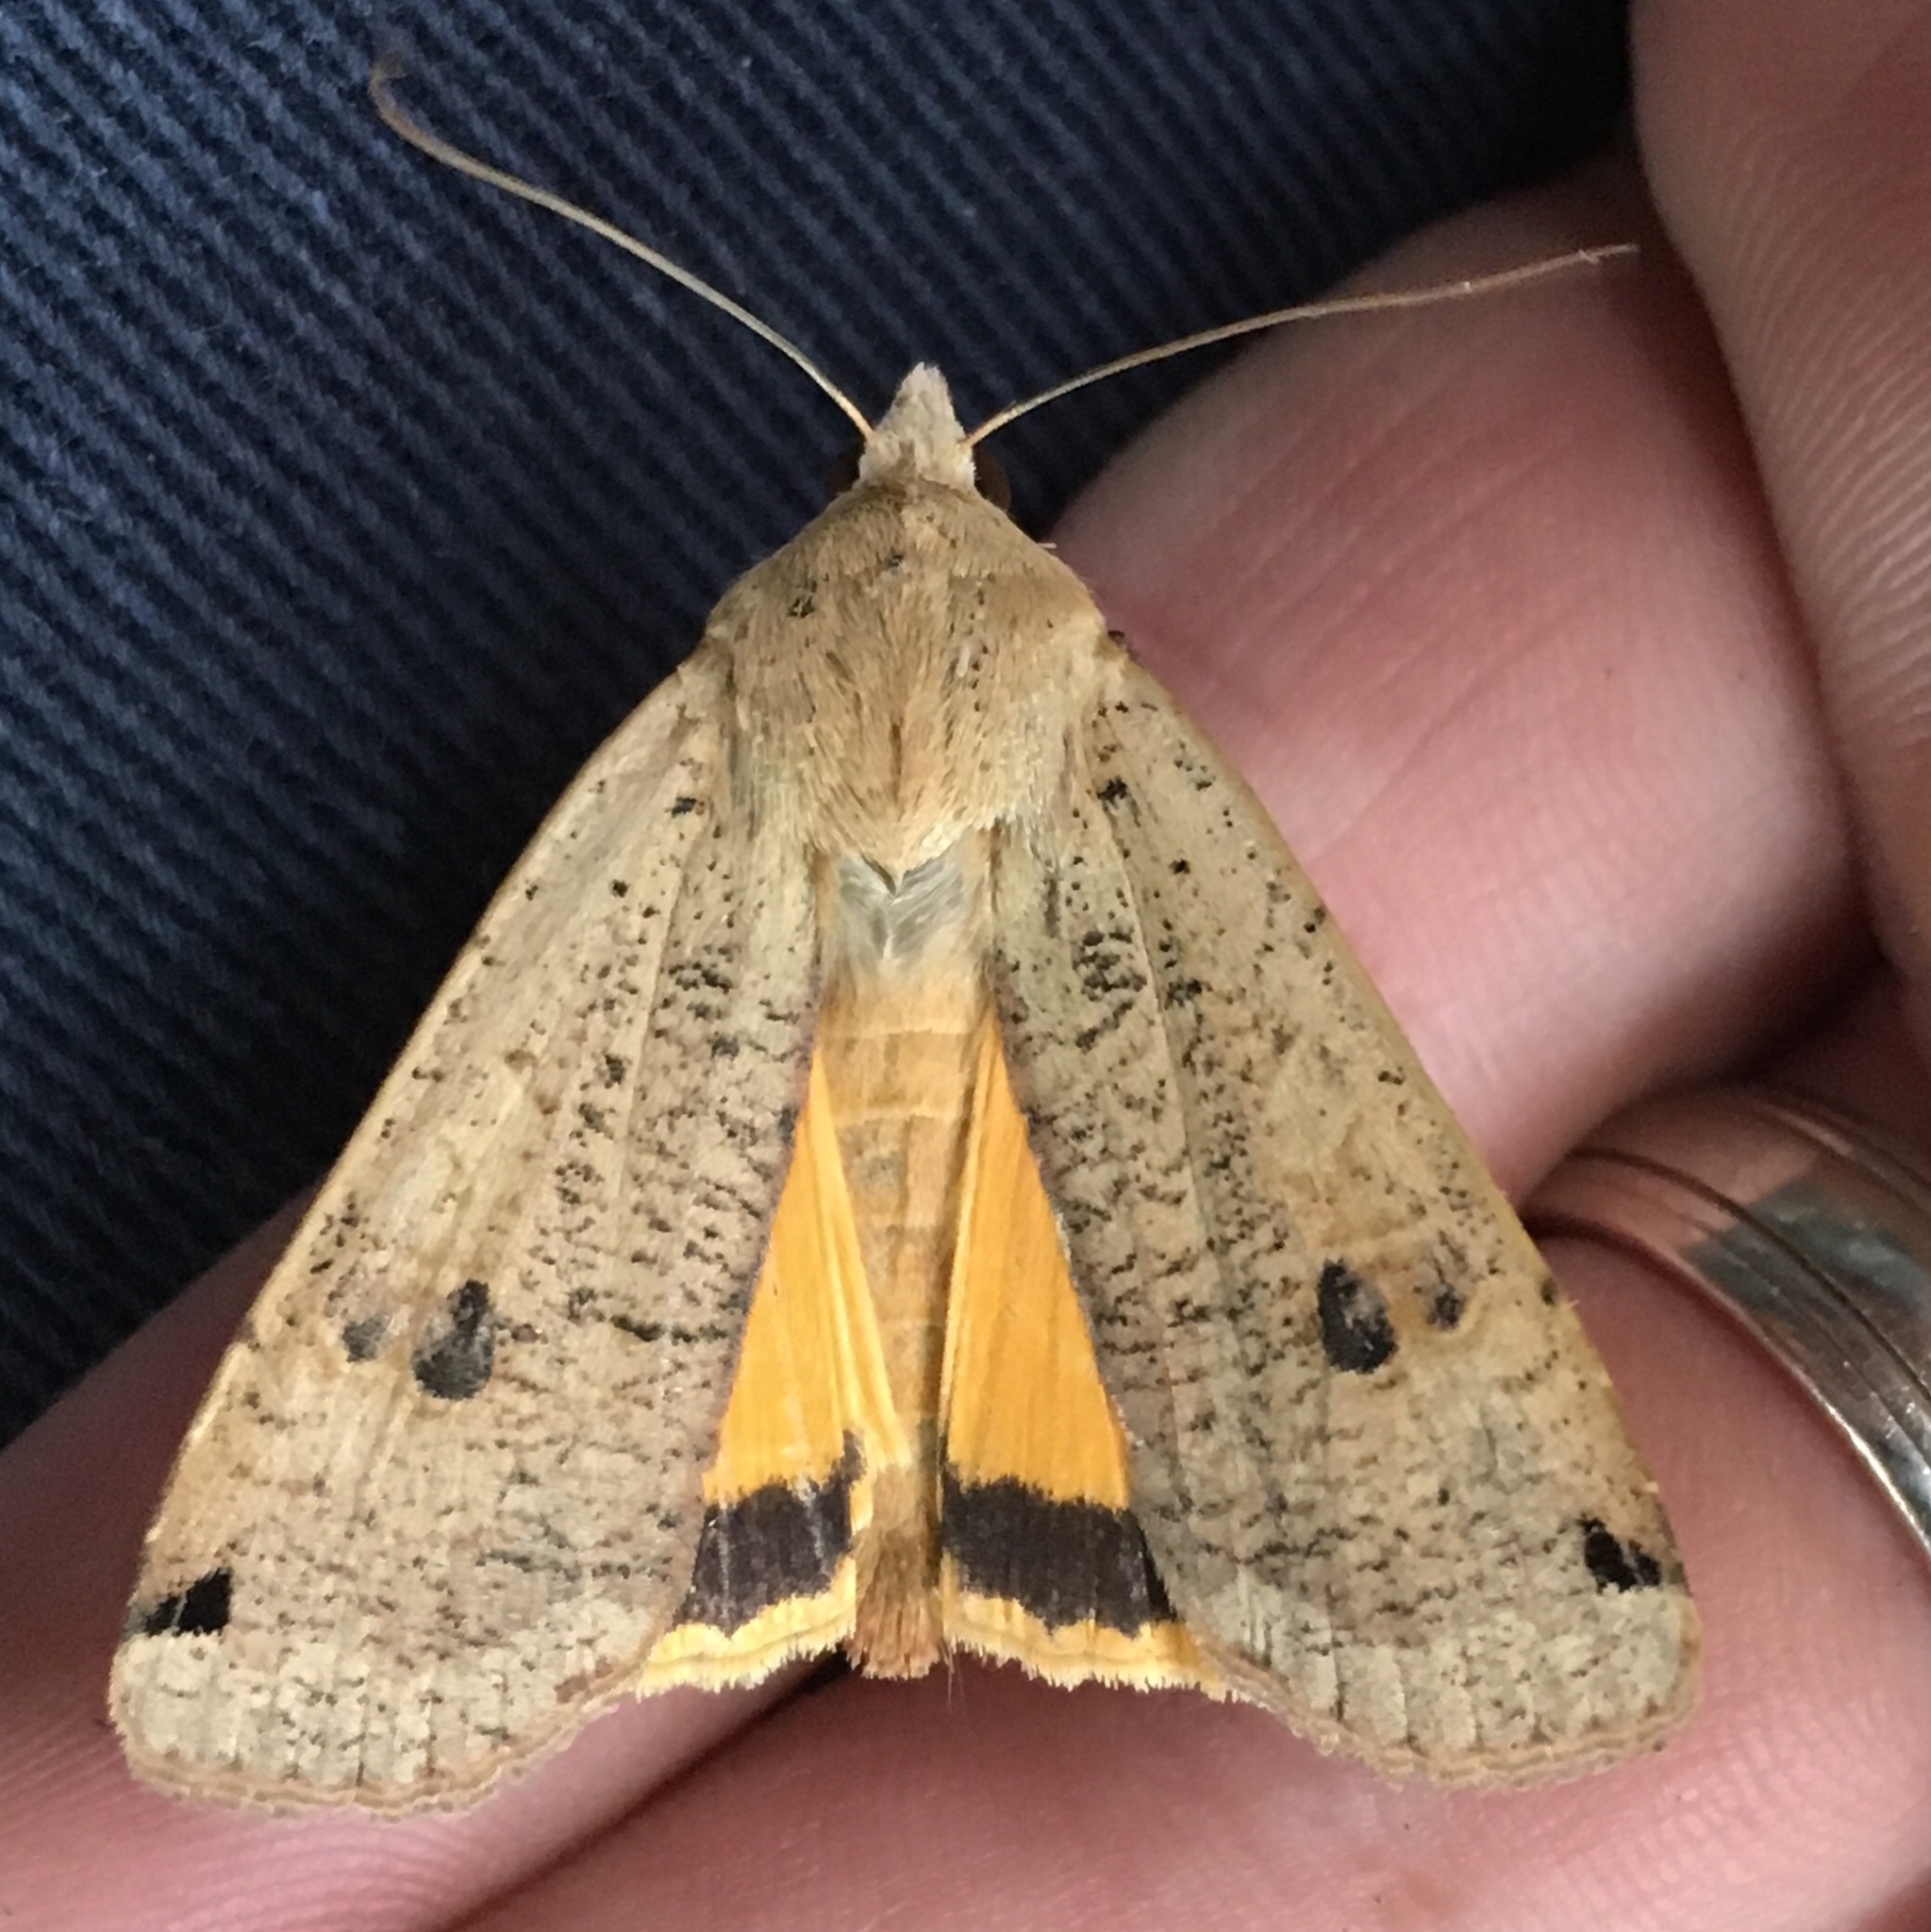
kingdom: Animalia
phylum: Arthropoda
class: Insecta
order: Lepidoptera
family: Noctuidae
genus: Noctua
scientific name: Noctua pronuba
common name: Large yellow underwing
